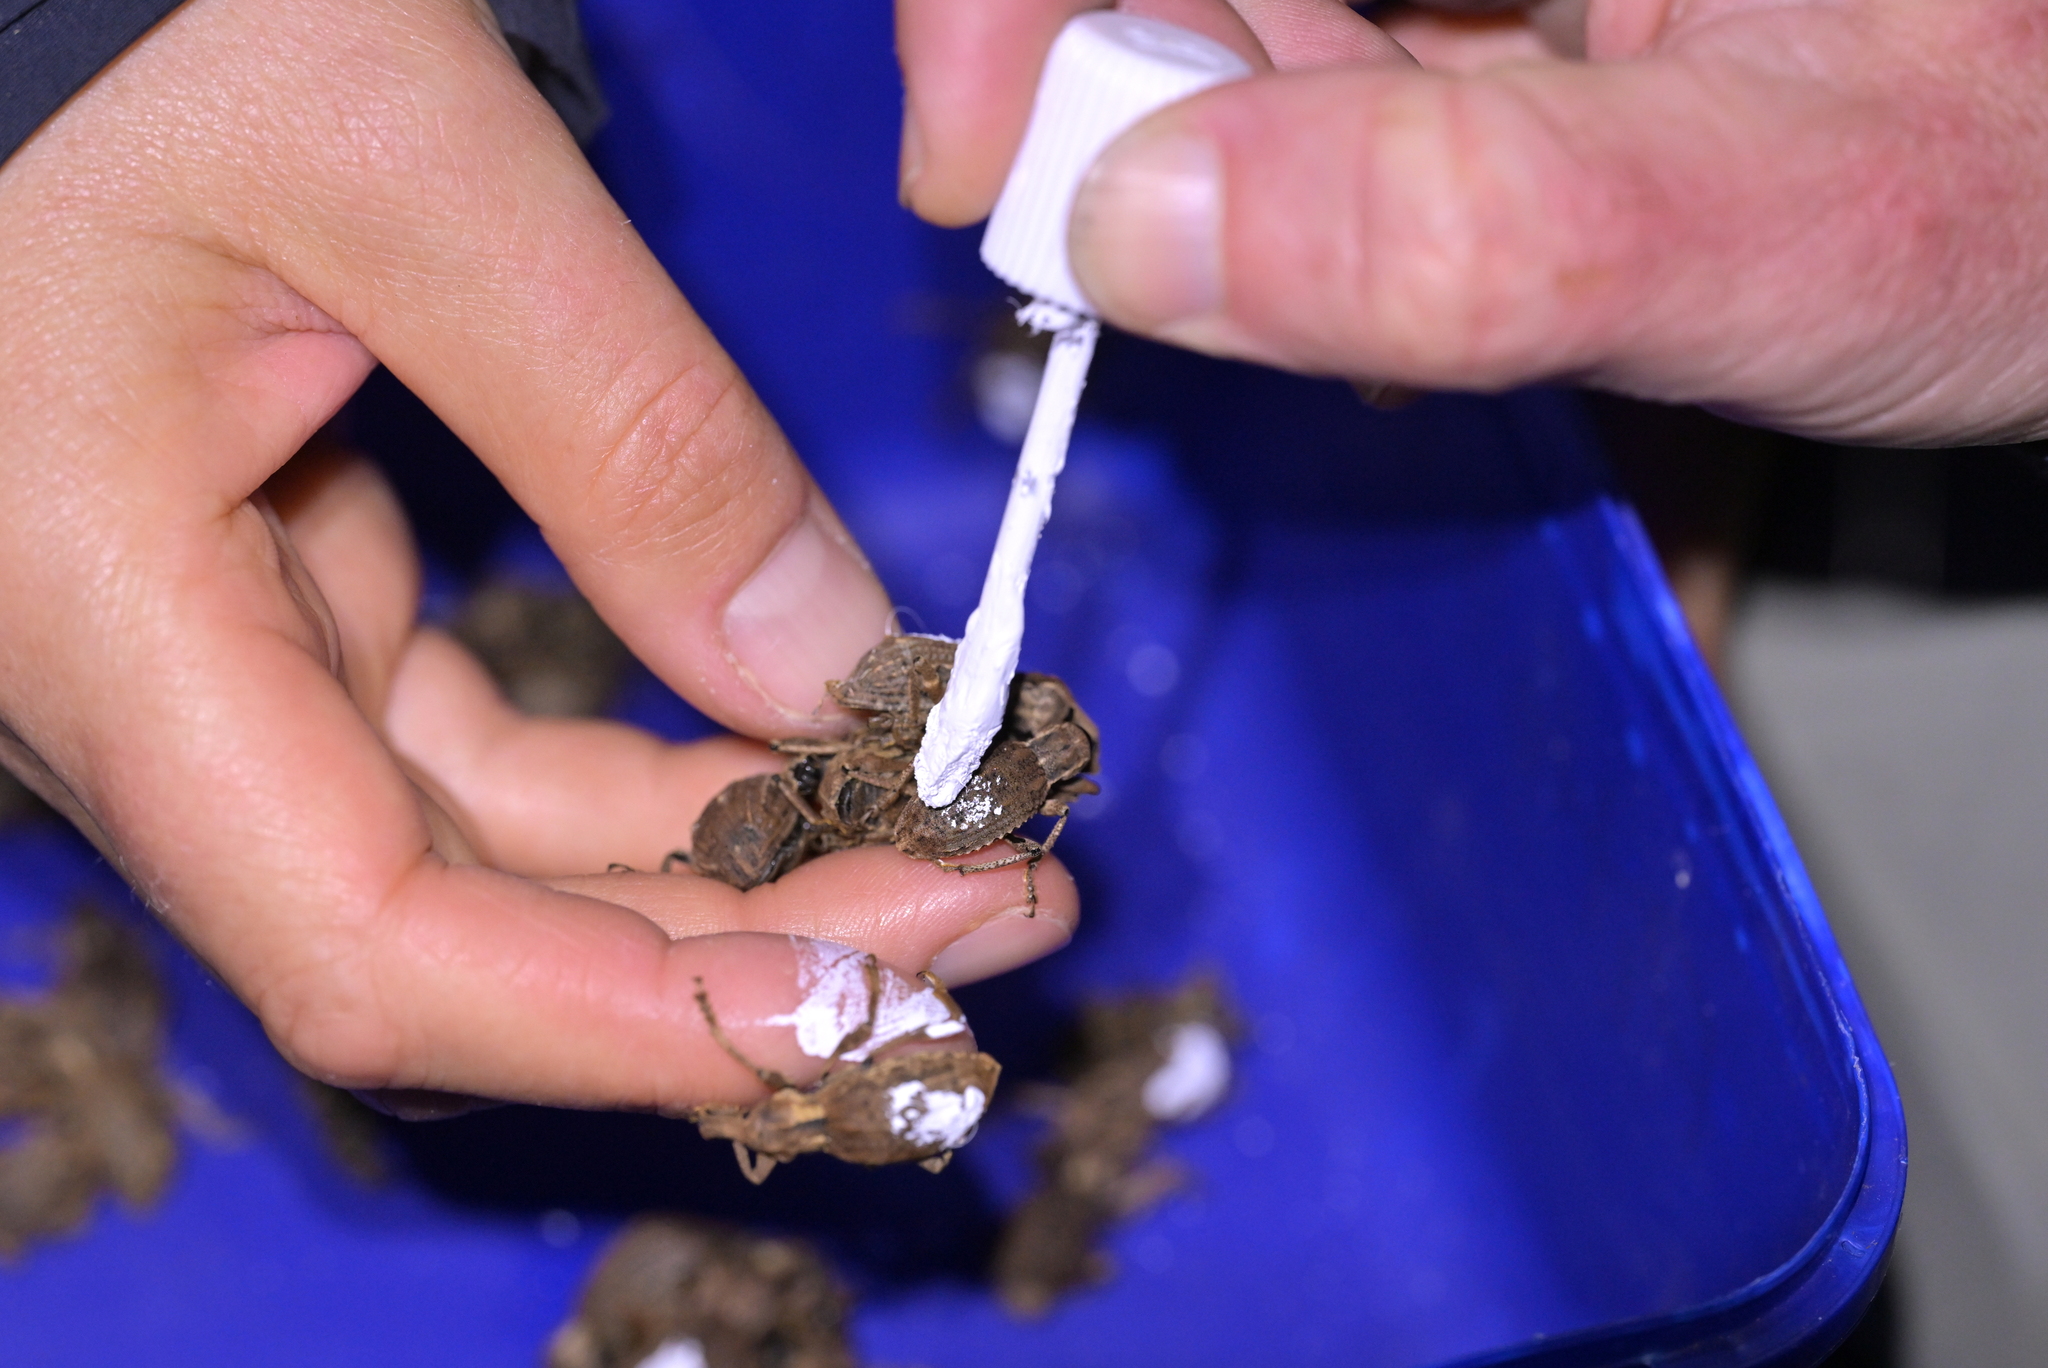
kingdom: Animalia
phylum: Arthropoda
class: Insecta
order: Coleoptera
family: Curculionidae
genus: Anagotus
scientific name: Anagotus fairburni
